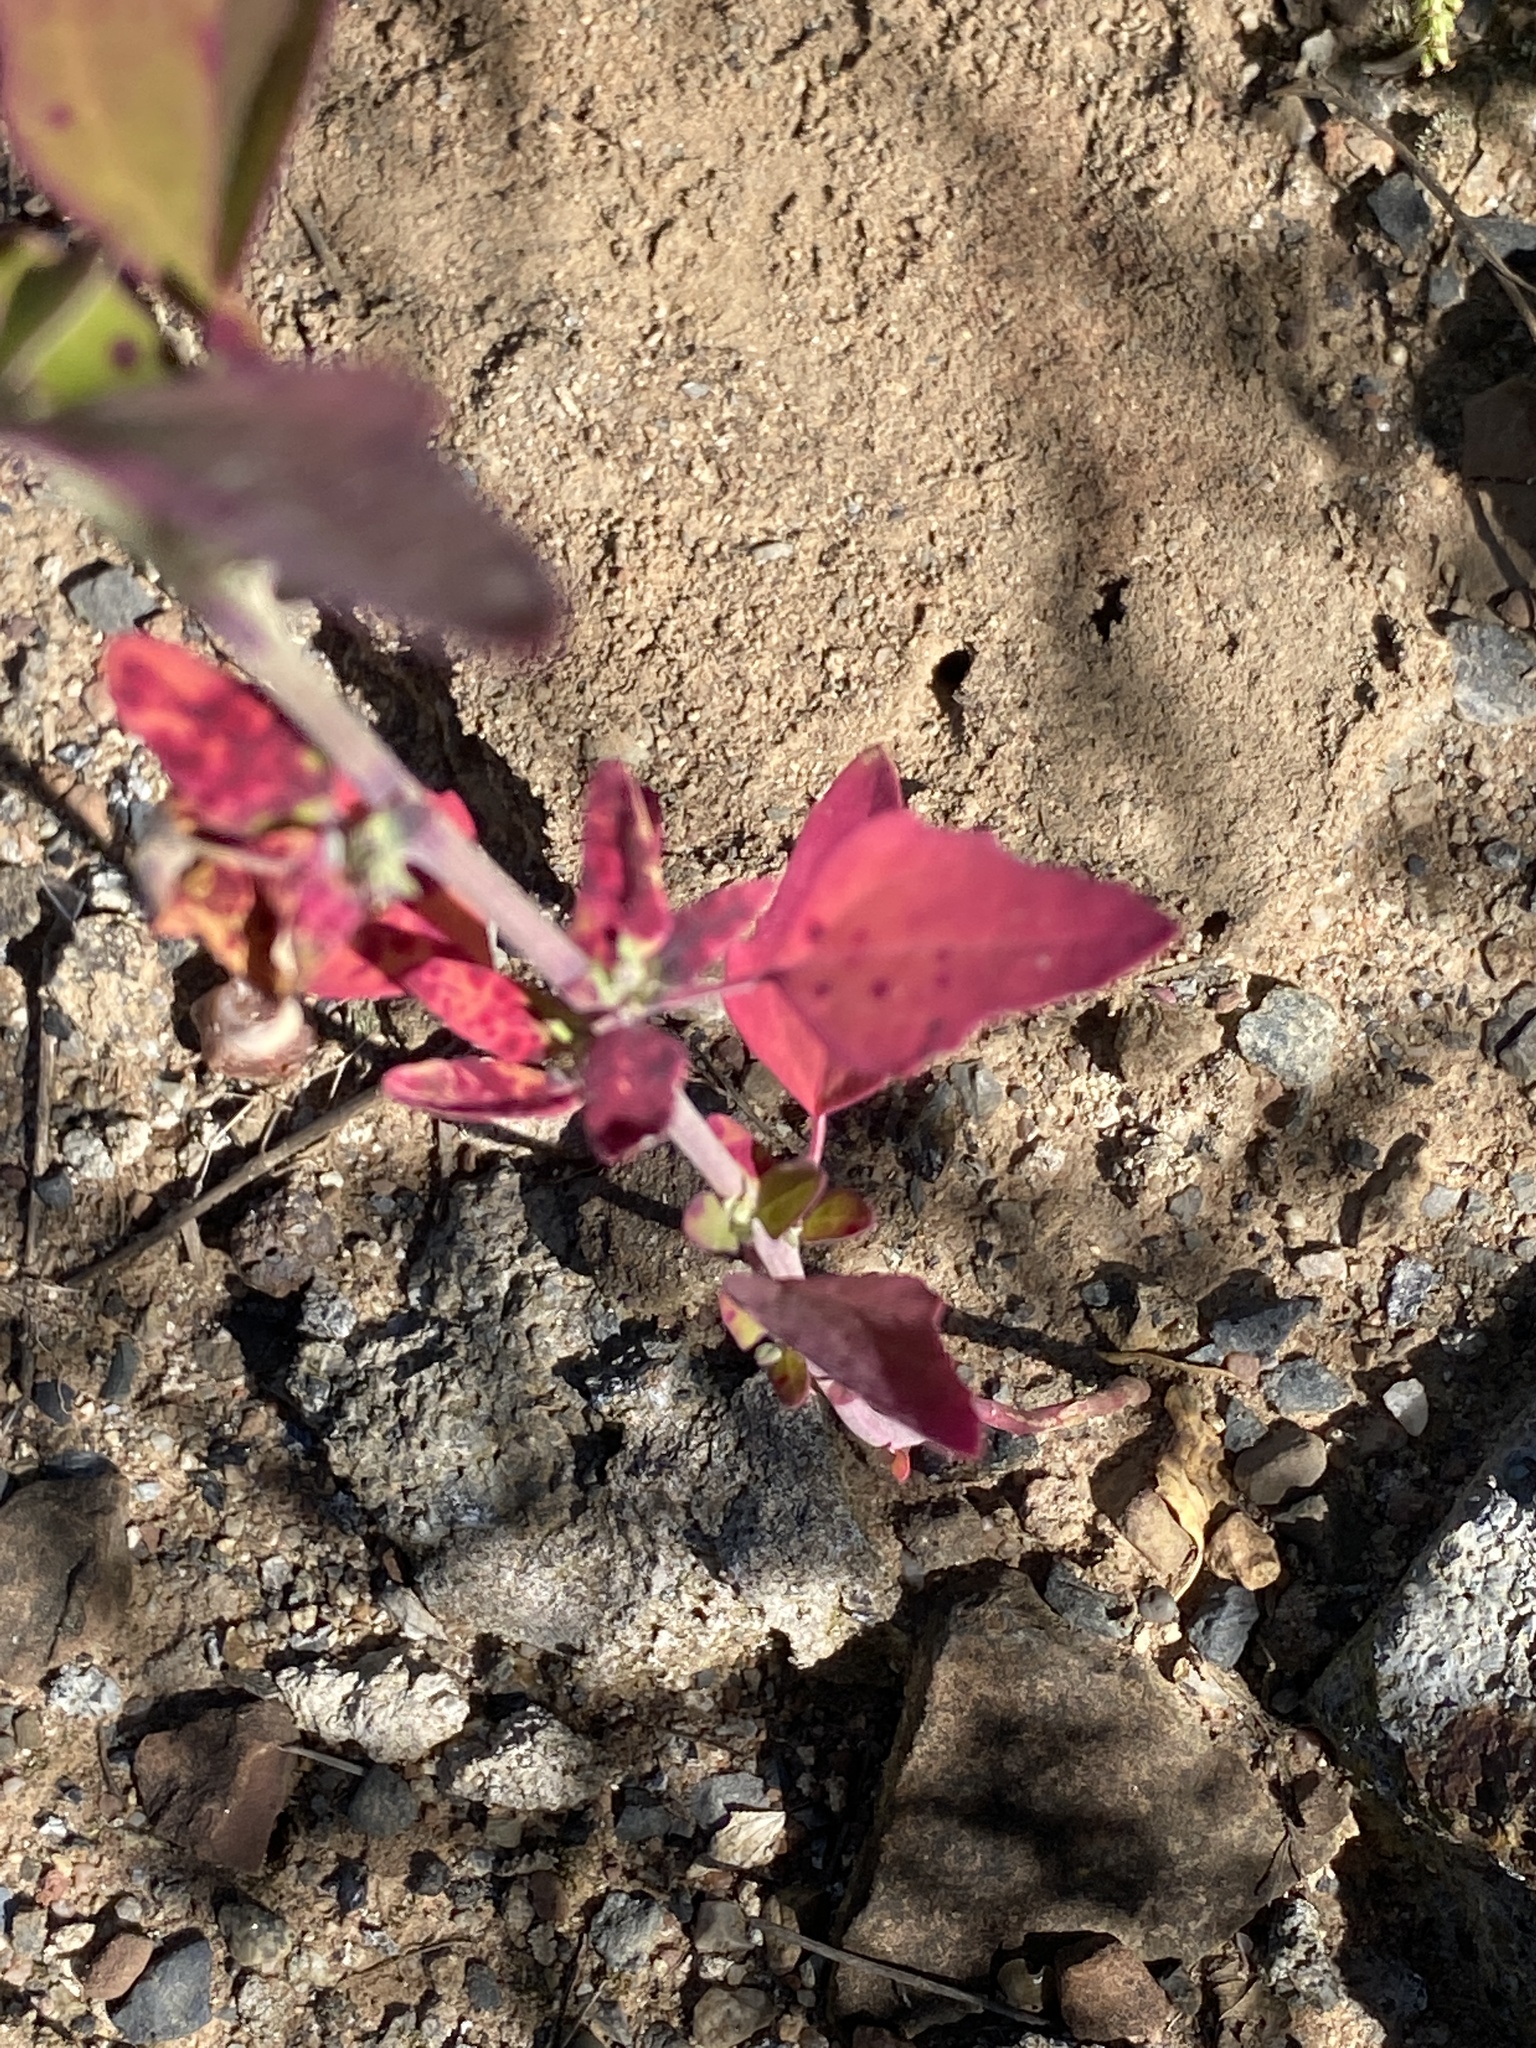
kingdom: Plantae
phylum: Tracheophyta
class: Magnoliopsida
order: Caryophyllales
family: Amaranthaceae
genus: Chenopodium
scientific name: Chenopodium album
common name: Fat-hen
